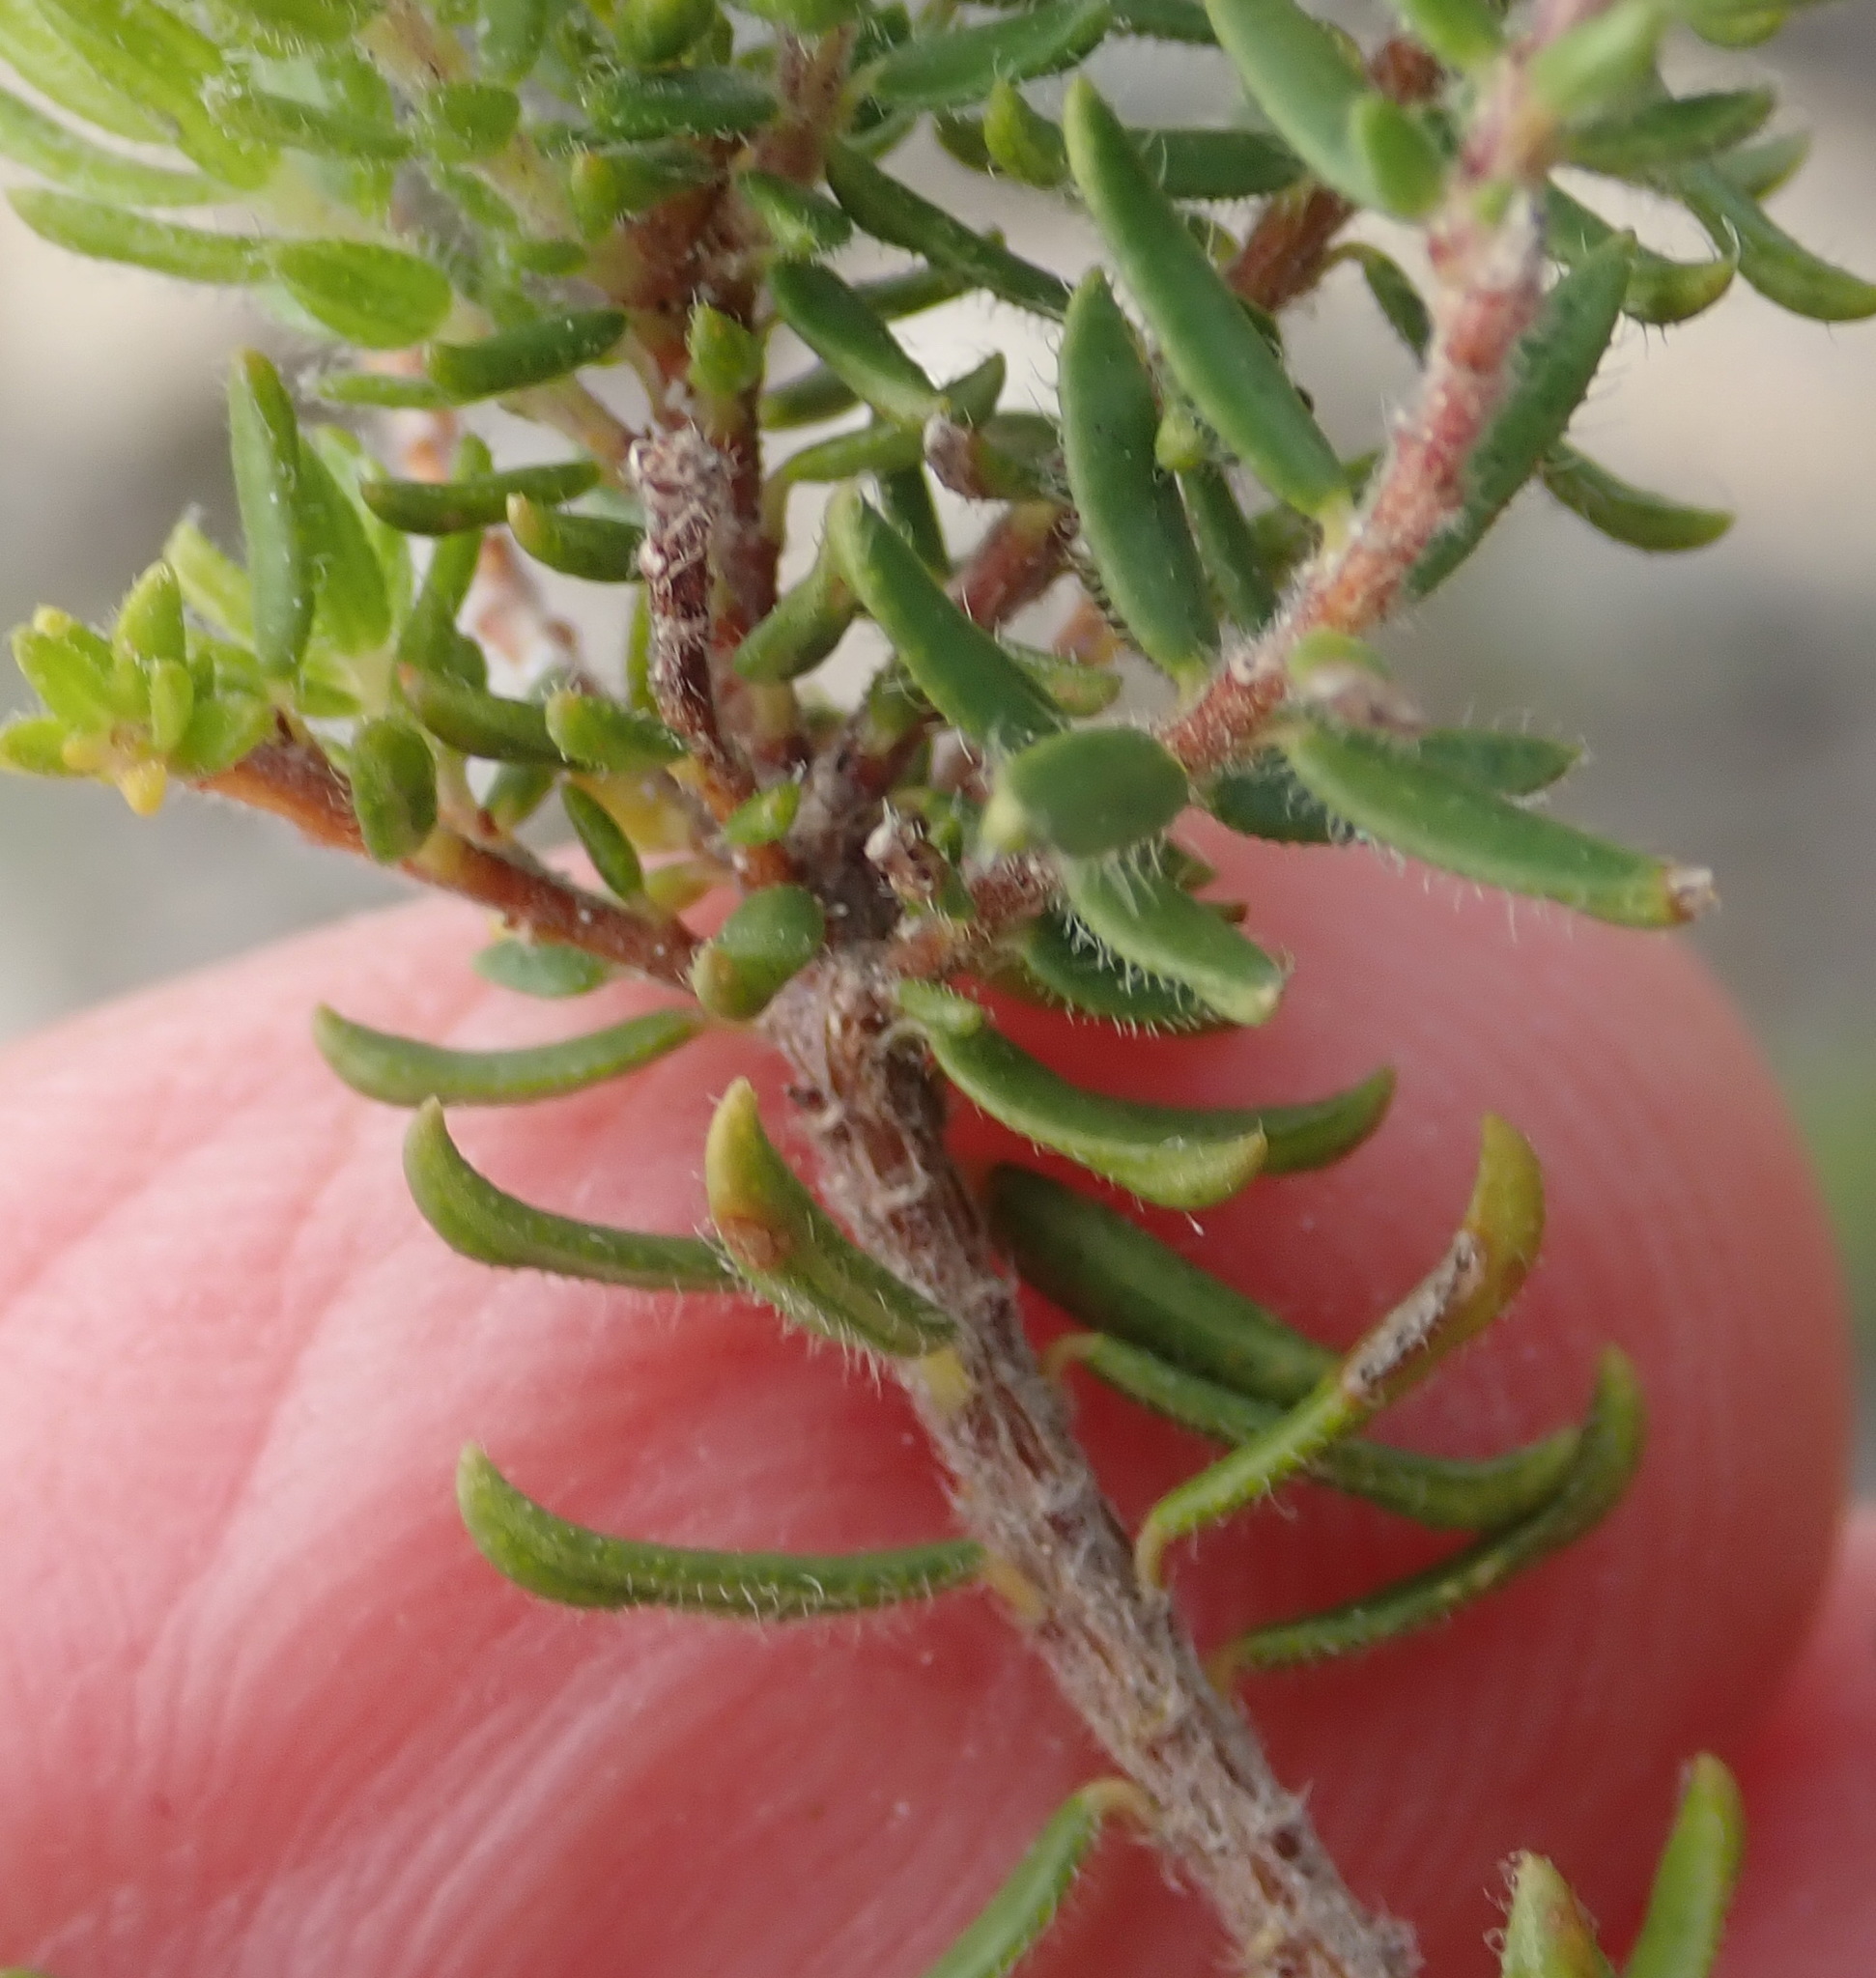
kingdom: Plantae
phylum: Tracheophyta
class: Magnoliopsida
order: Sapindales
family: Rutaceae
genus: Agathosma
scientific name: Agathosma serpyllacea
